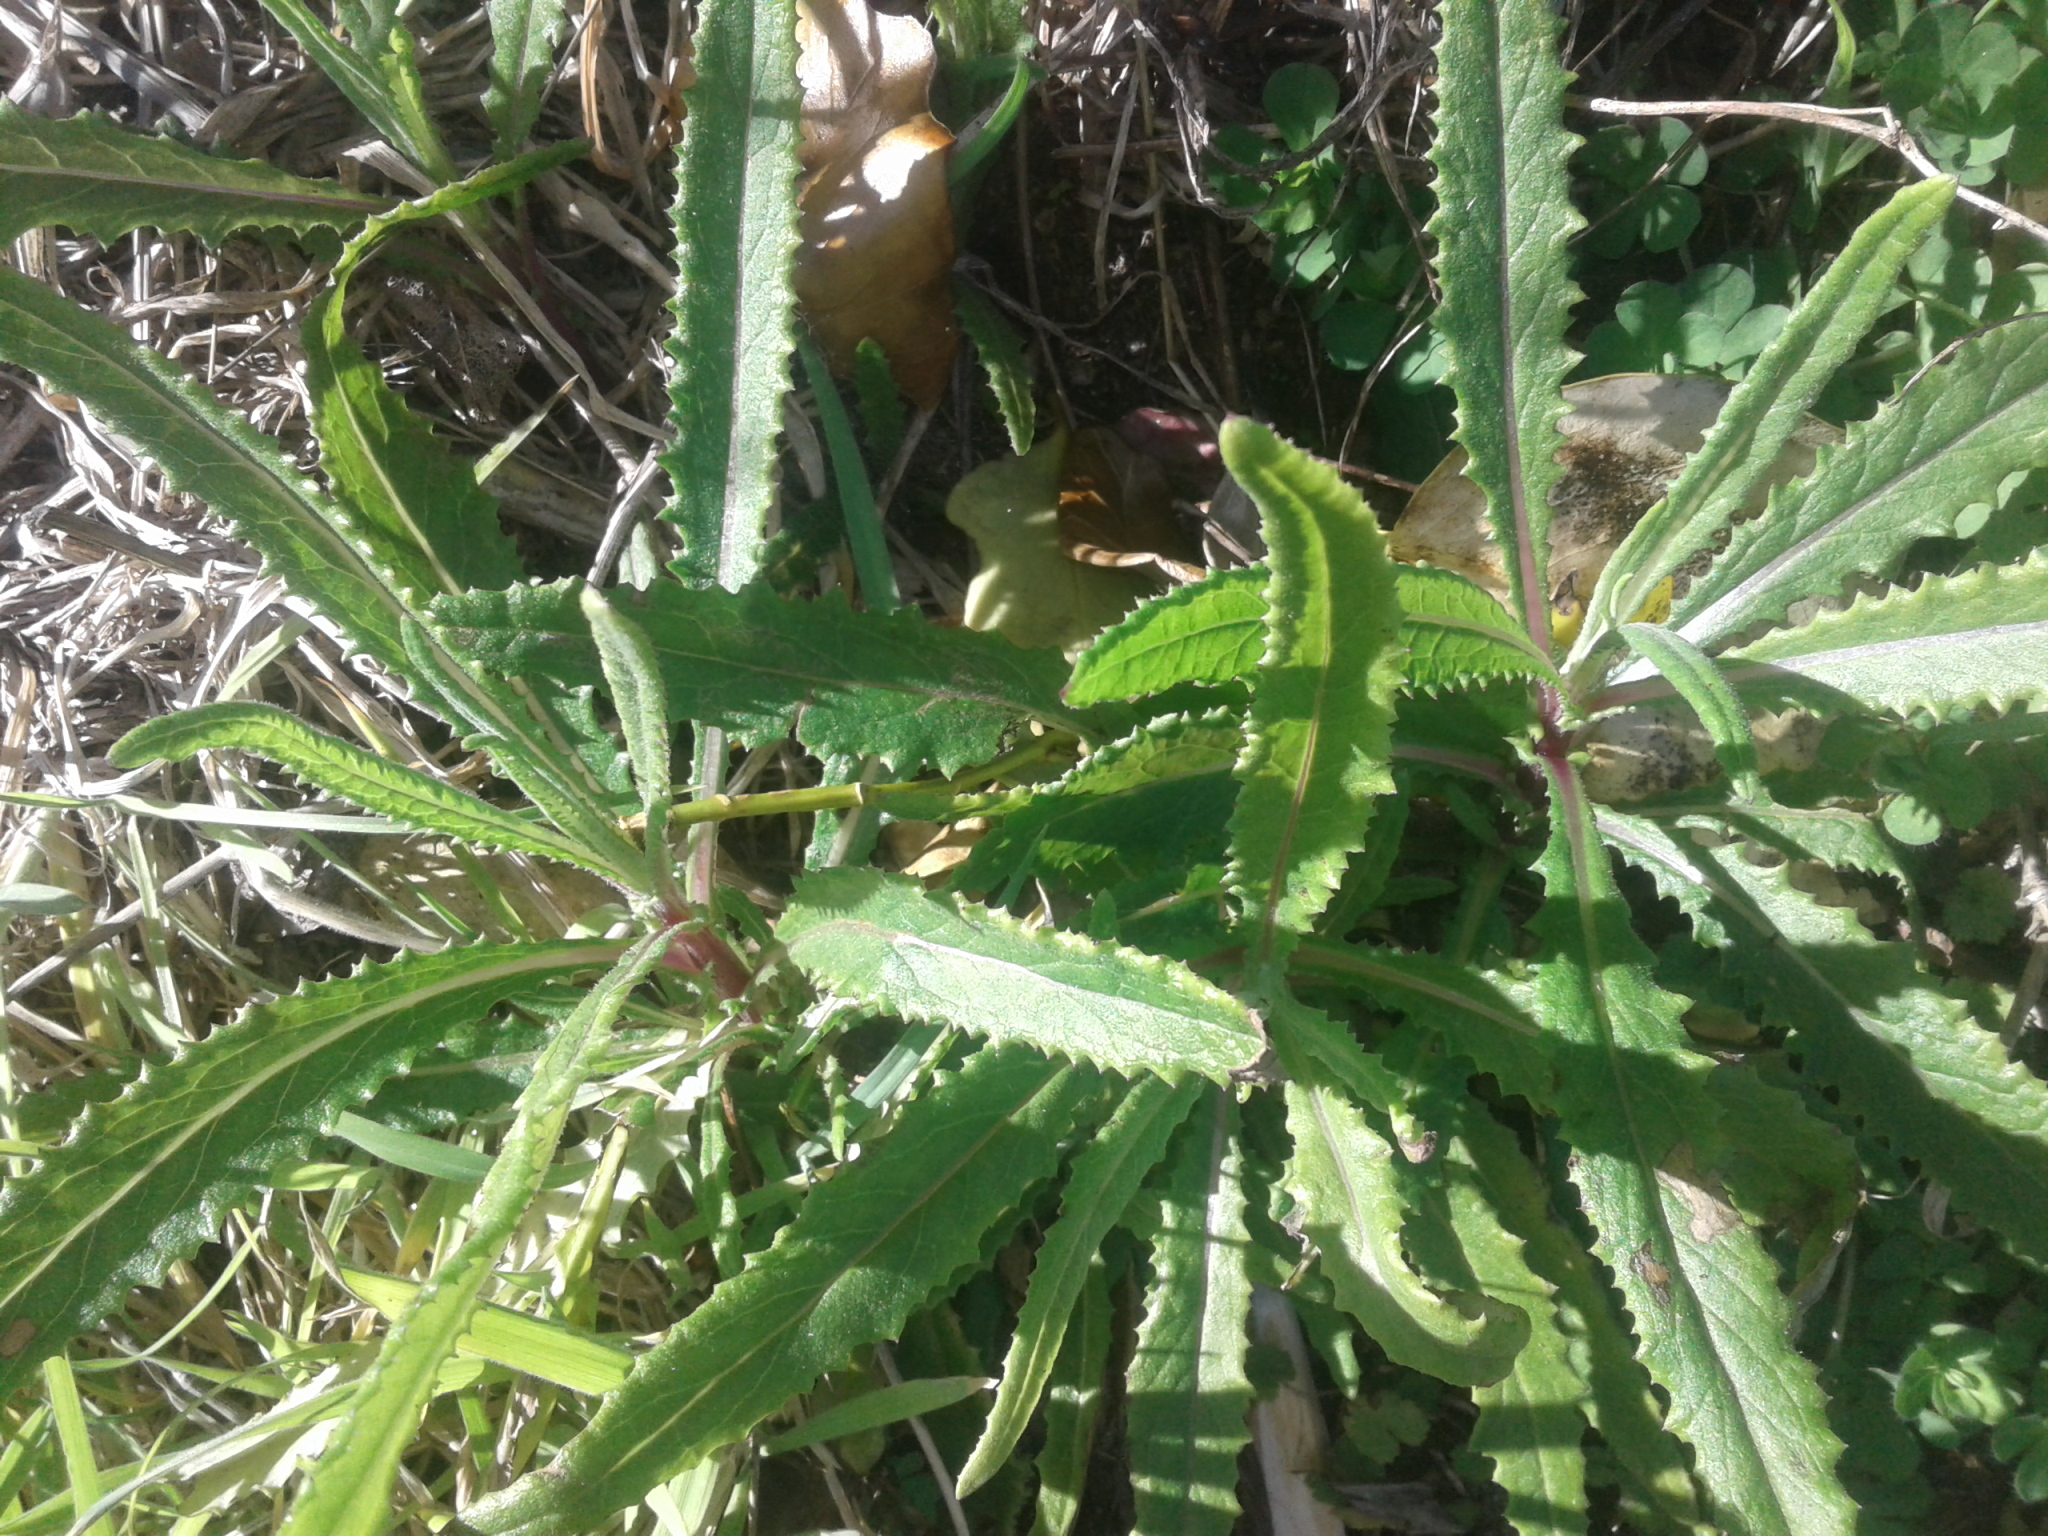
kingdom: Plantae
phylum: Tracheophyta
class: Magnoliopsida
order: Asterales
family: Asteraceae
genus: Senecio
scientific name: Senecio minimus
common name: Toothed fireweed
